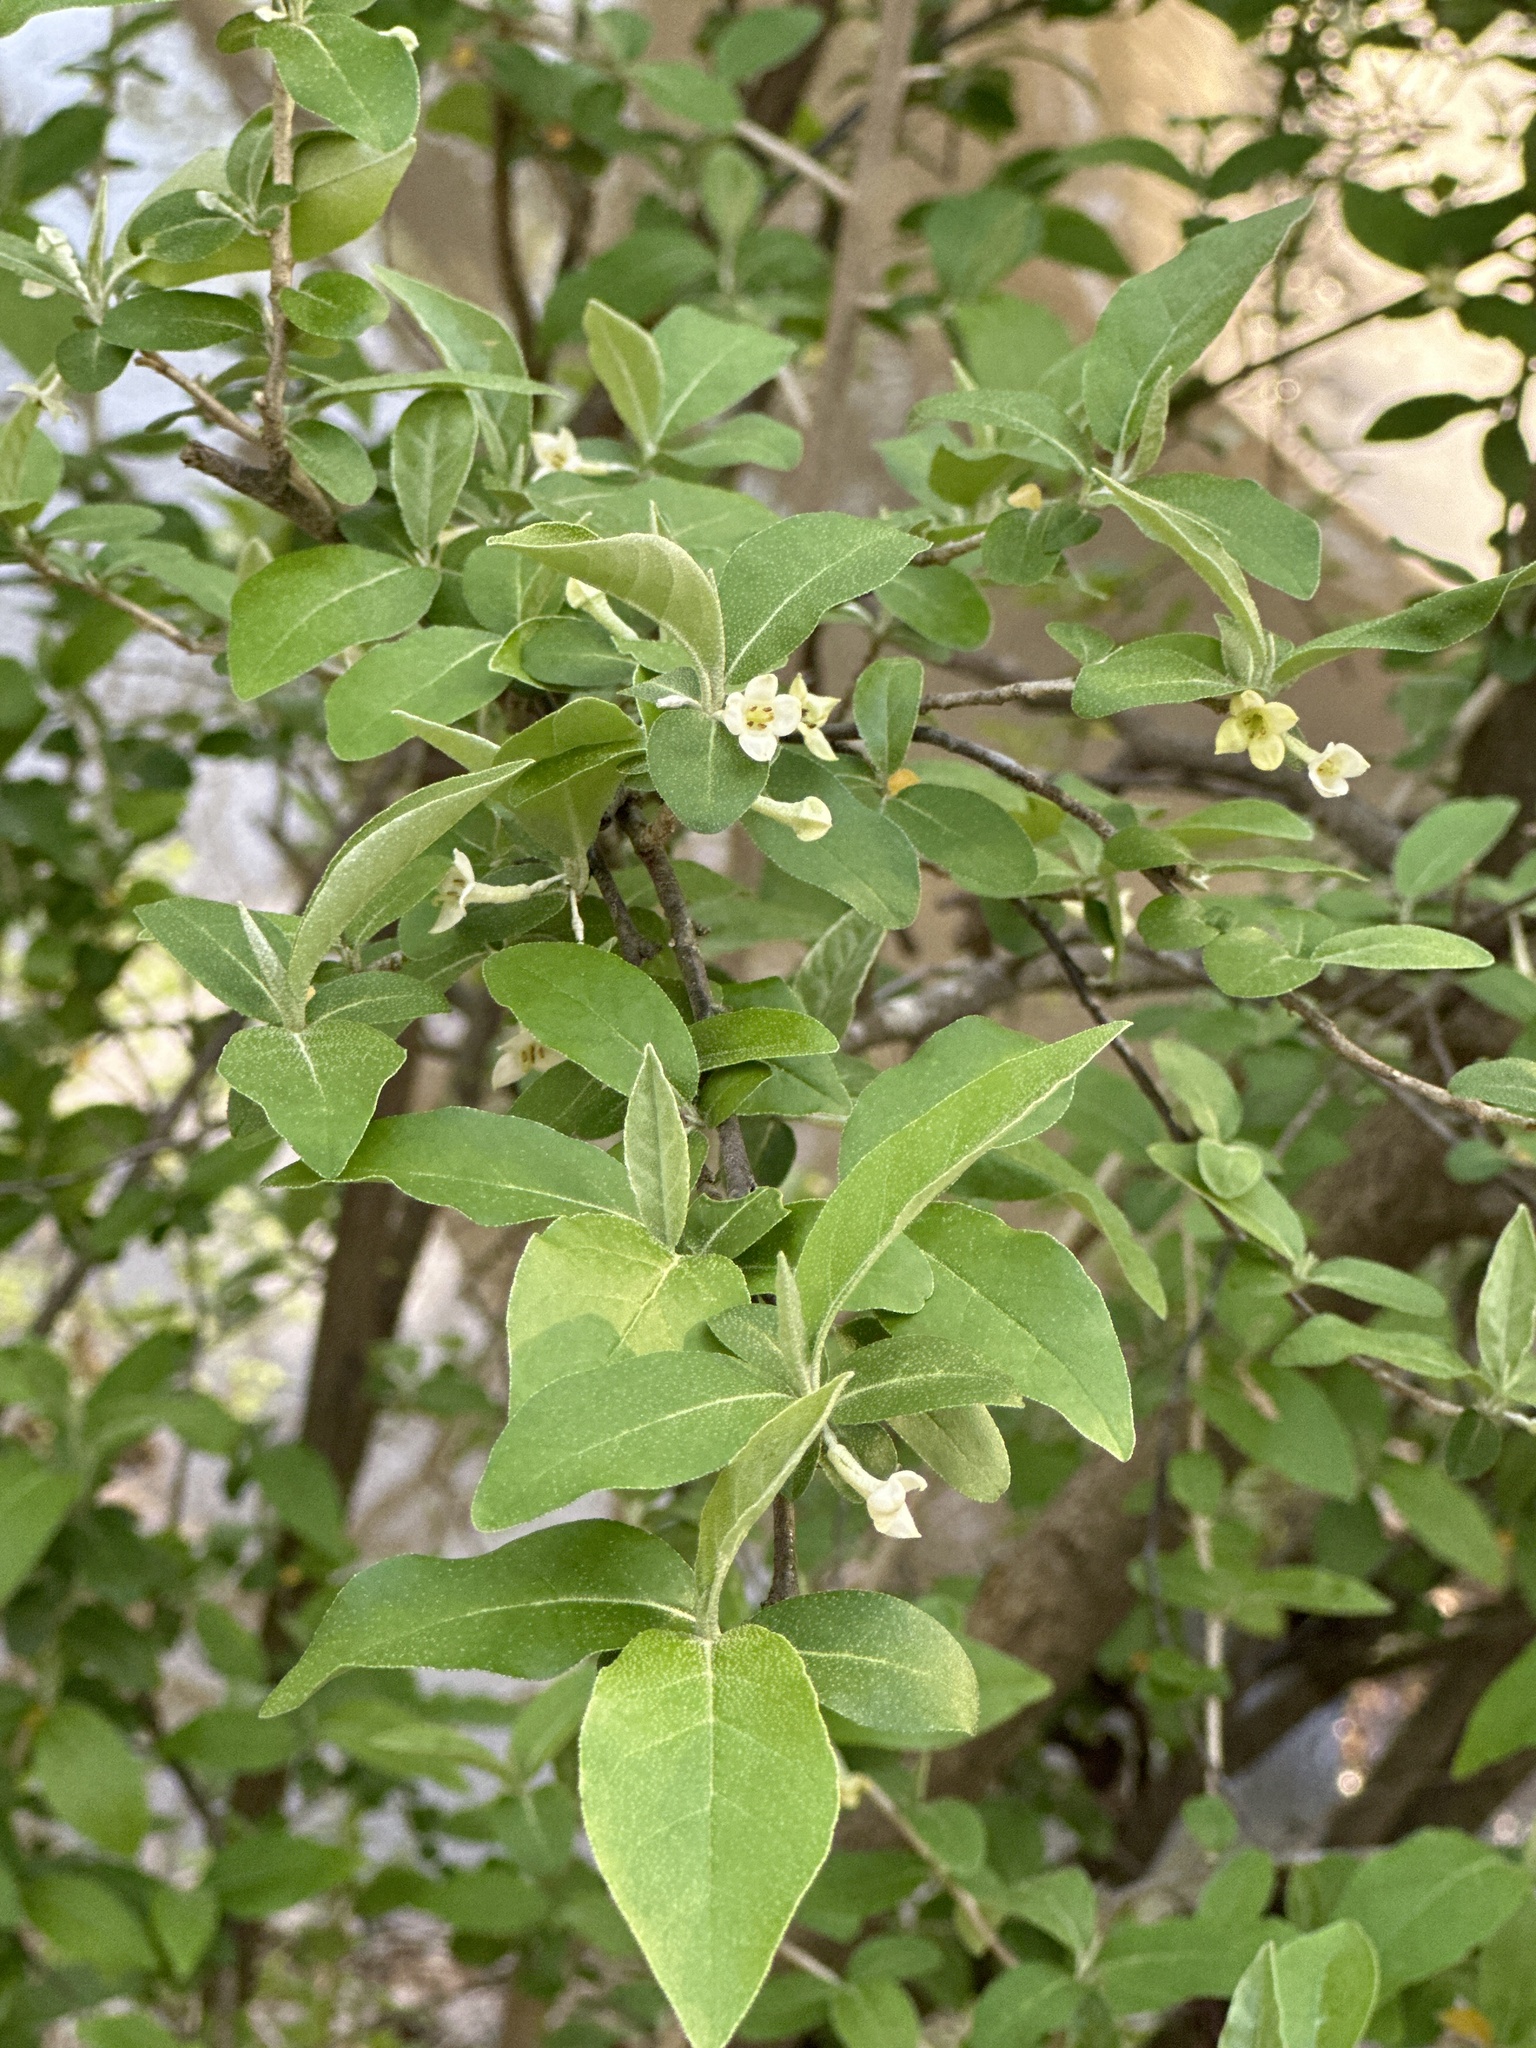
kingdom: Plantae
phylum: Tracheophyta
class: Magnoliopsida
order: Rosales
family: Elaeagnaceae
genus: Elaeagnus
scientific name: Elaeagnus umbellata
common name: Autumn olive
